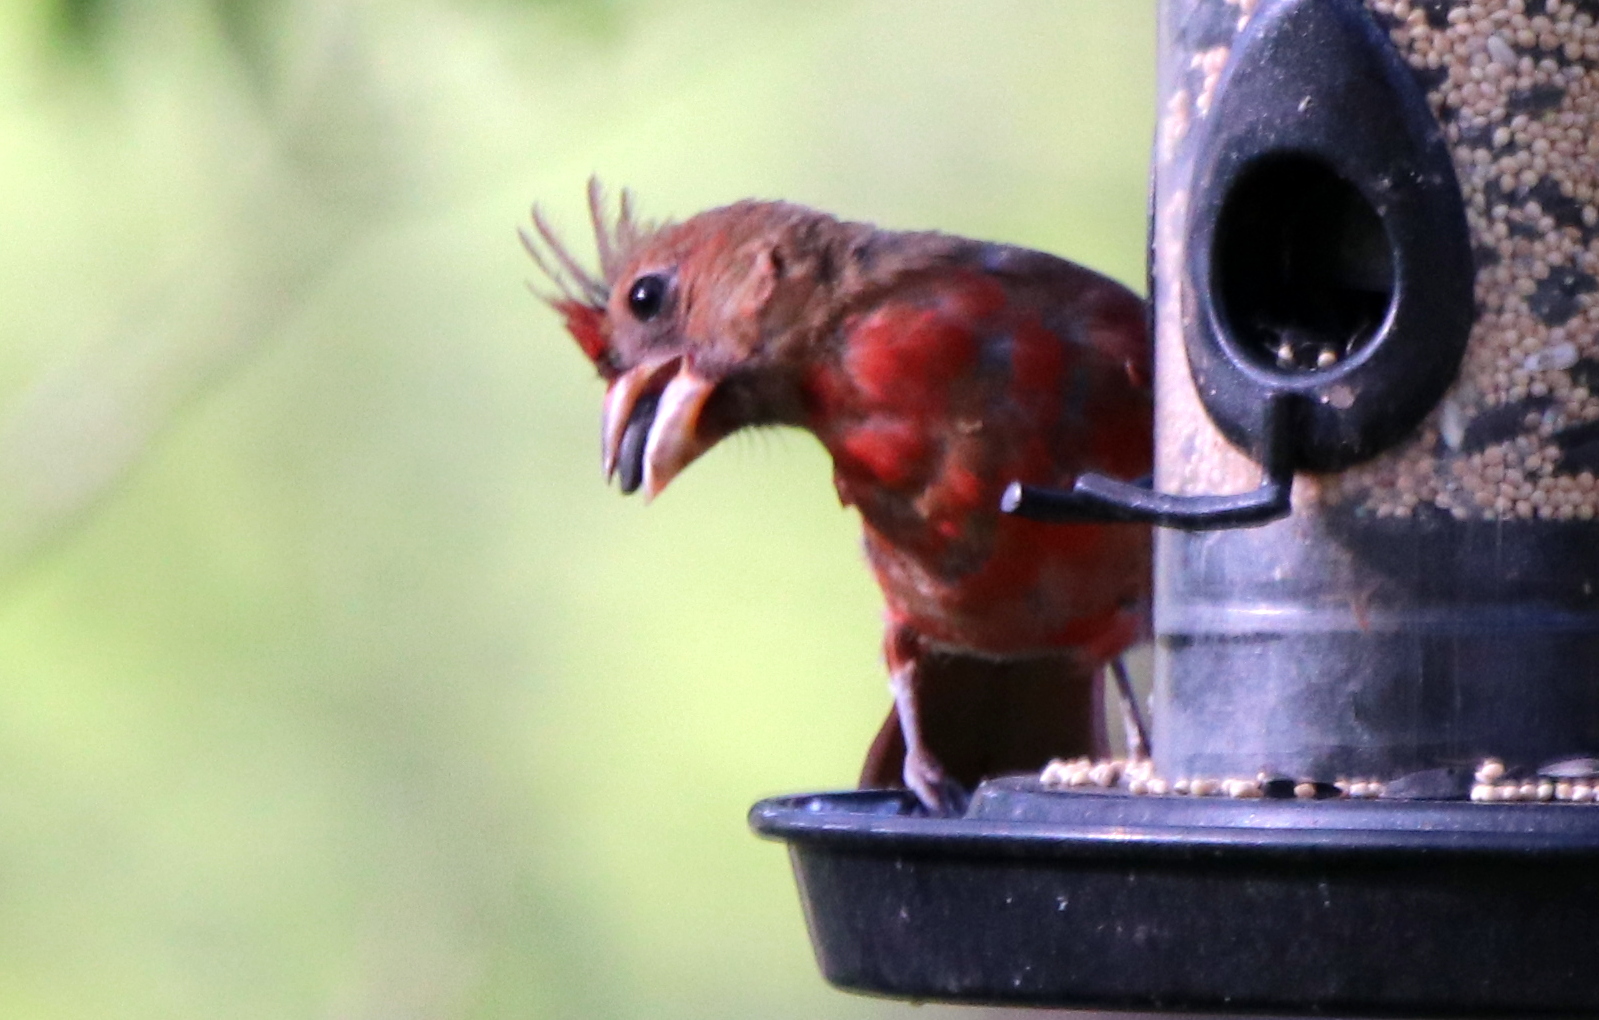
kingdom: Animalia
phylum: Chordata
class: Aves
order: Passeriformes
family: Cardinalidae
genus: Cardinalis
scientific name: Cardinalis cardinalis
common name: Northern cardinal
